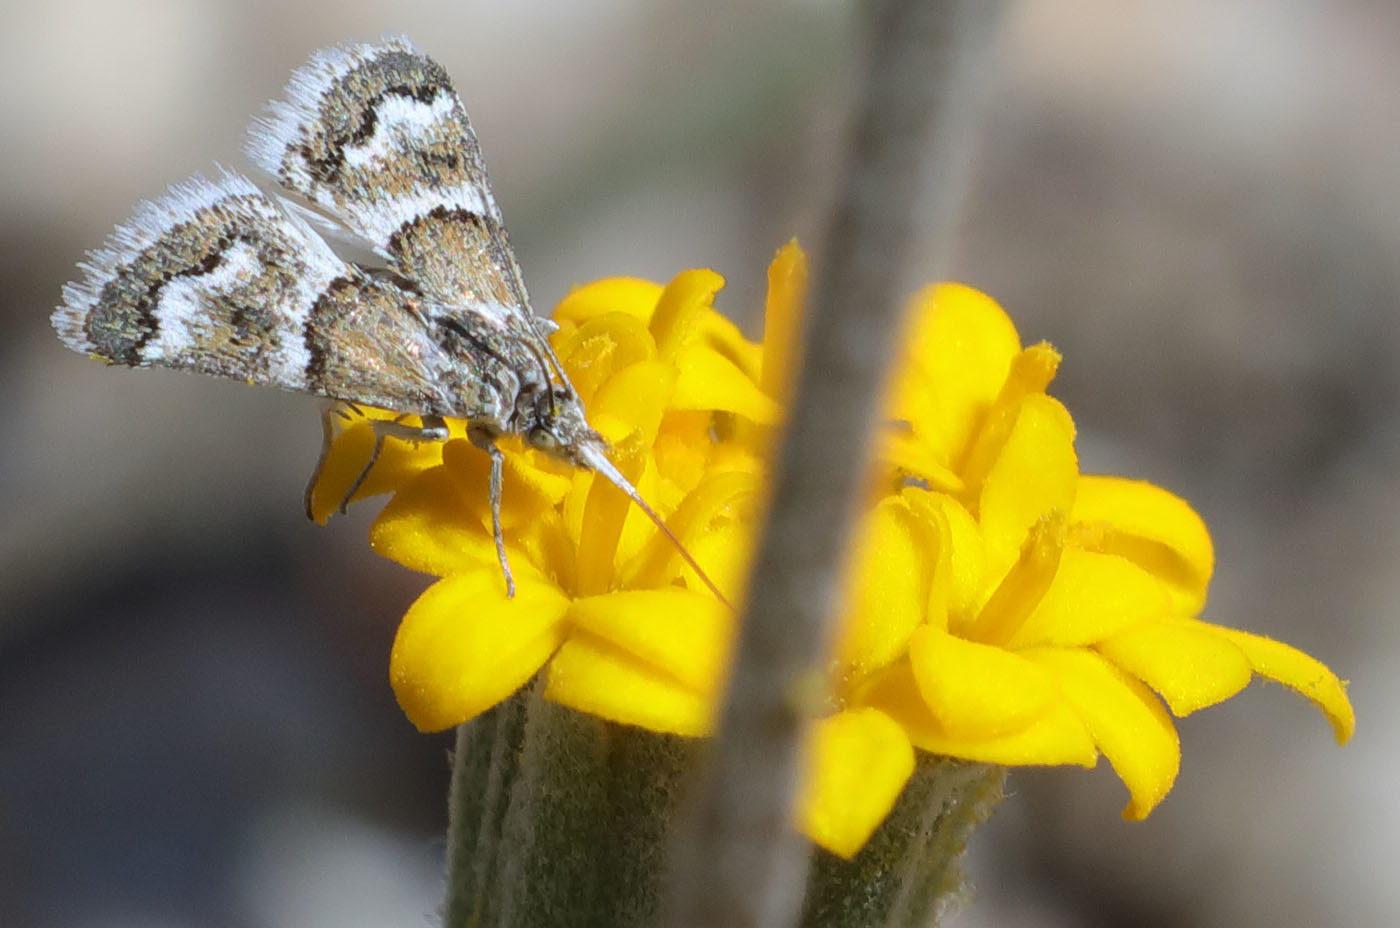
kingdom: Animalia
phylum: Arthropoda
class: Insecta
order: Lepidoptera
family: Crambidae
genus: Nannobotys
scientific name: Nannobotys commortalis
